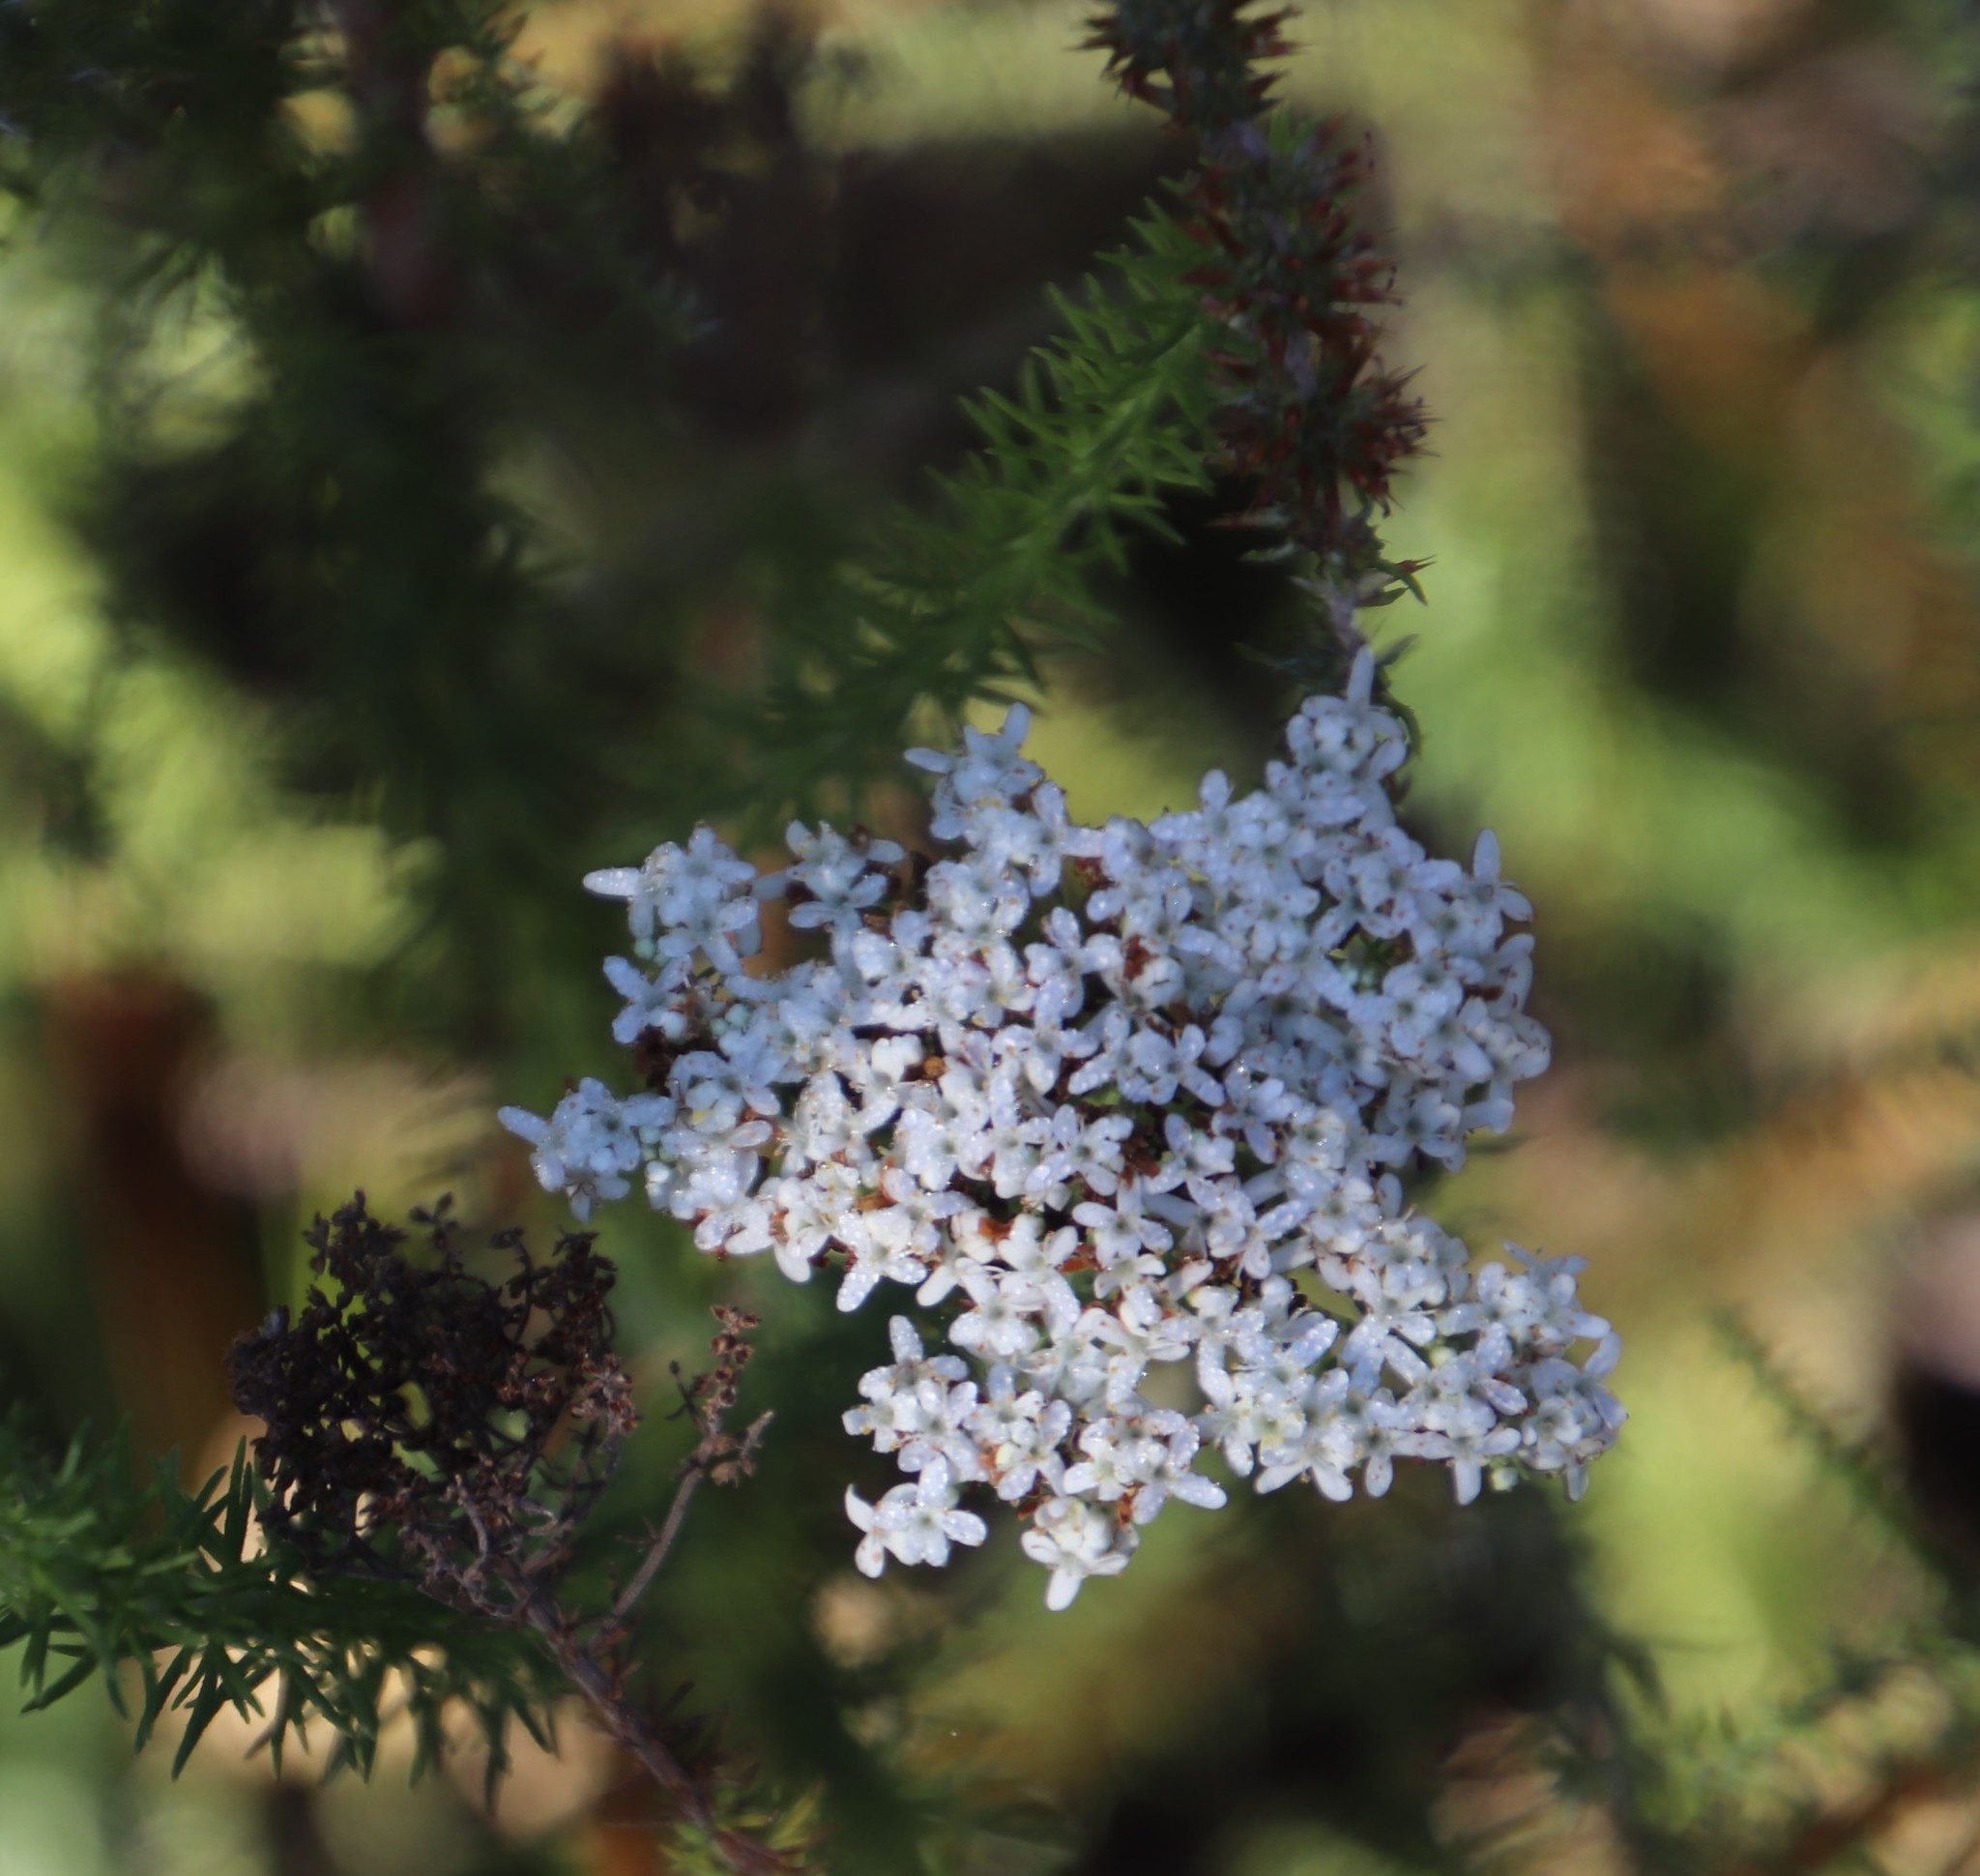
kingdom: Plantae
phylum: Tracheophyta
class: Magnoliopsida
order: Lamiales
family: Scrophulariaceae
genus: Selago
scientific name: Selago corymbosa
